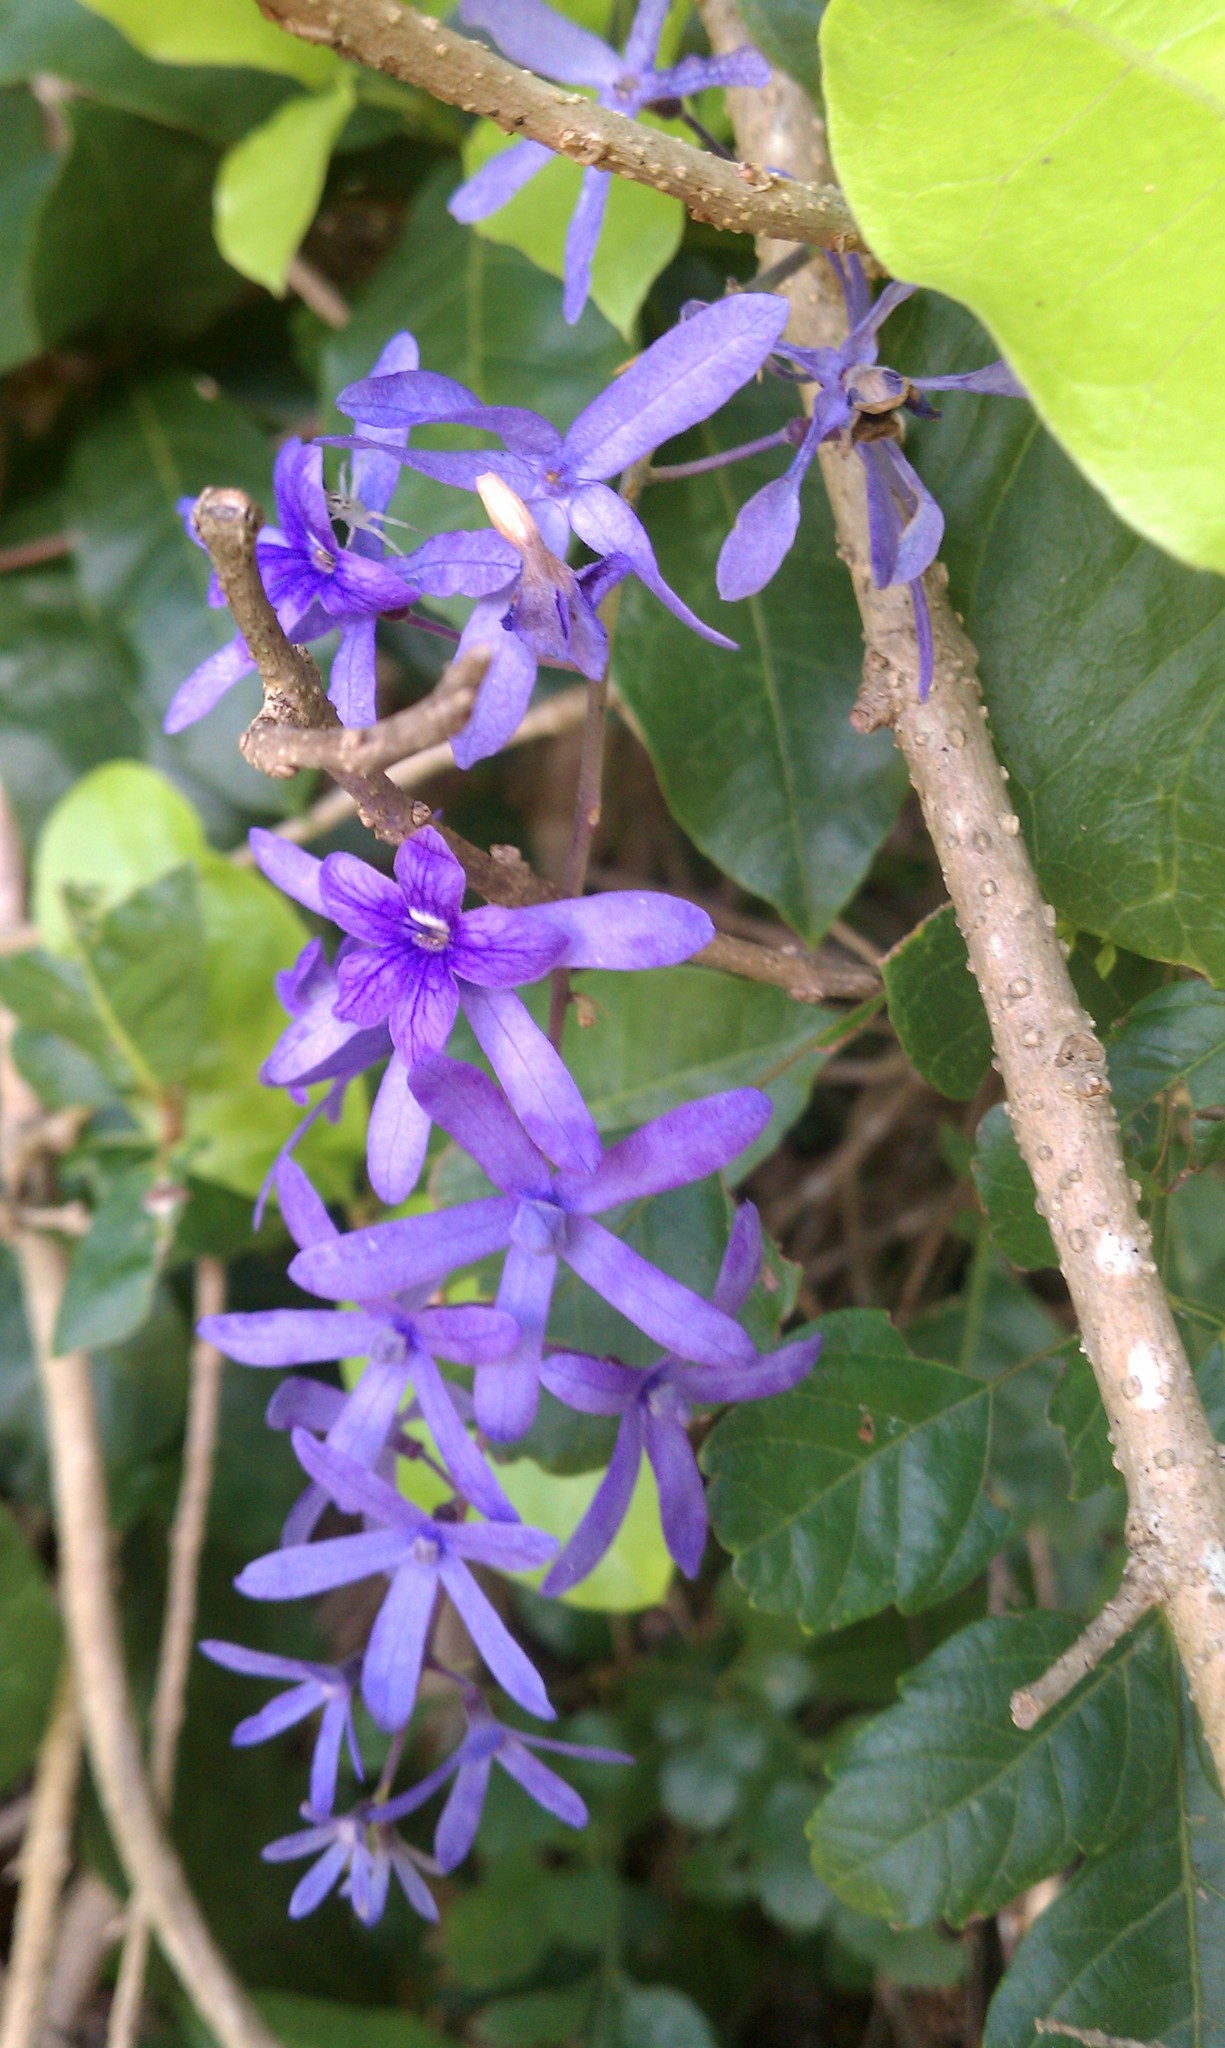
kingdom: Plantae
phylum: Tracheophyta
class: Magnoliopsida
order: Lamiales
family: Verbenaceae
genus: Petrea
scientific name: Petrea volubilis
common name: Queen's-wreath
